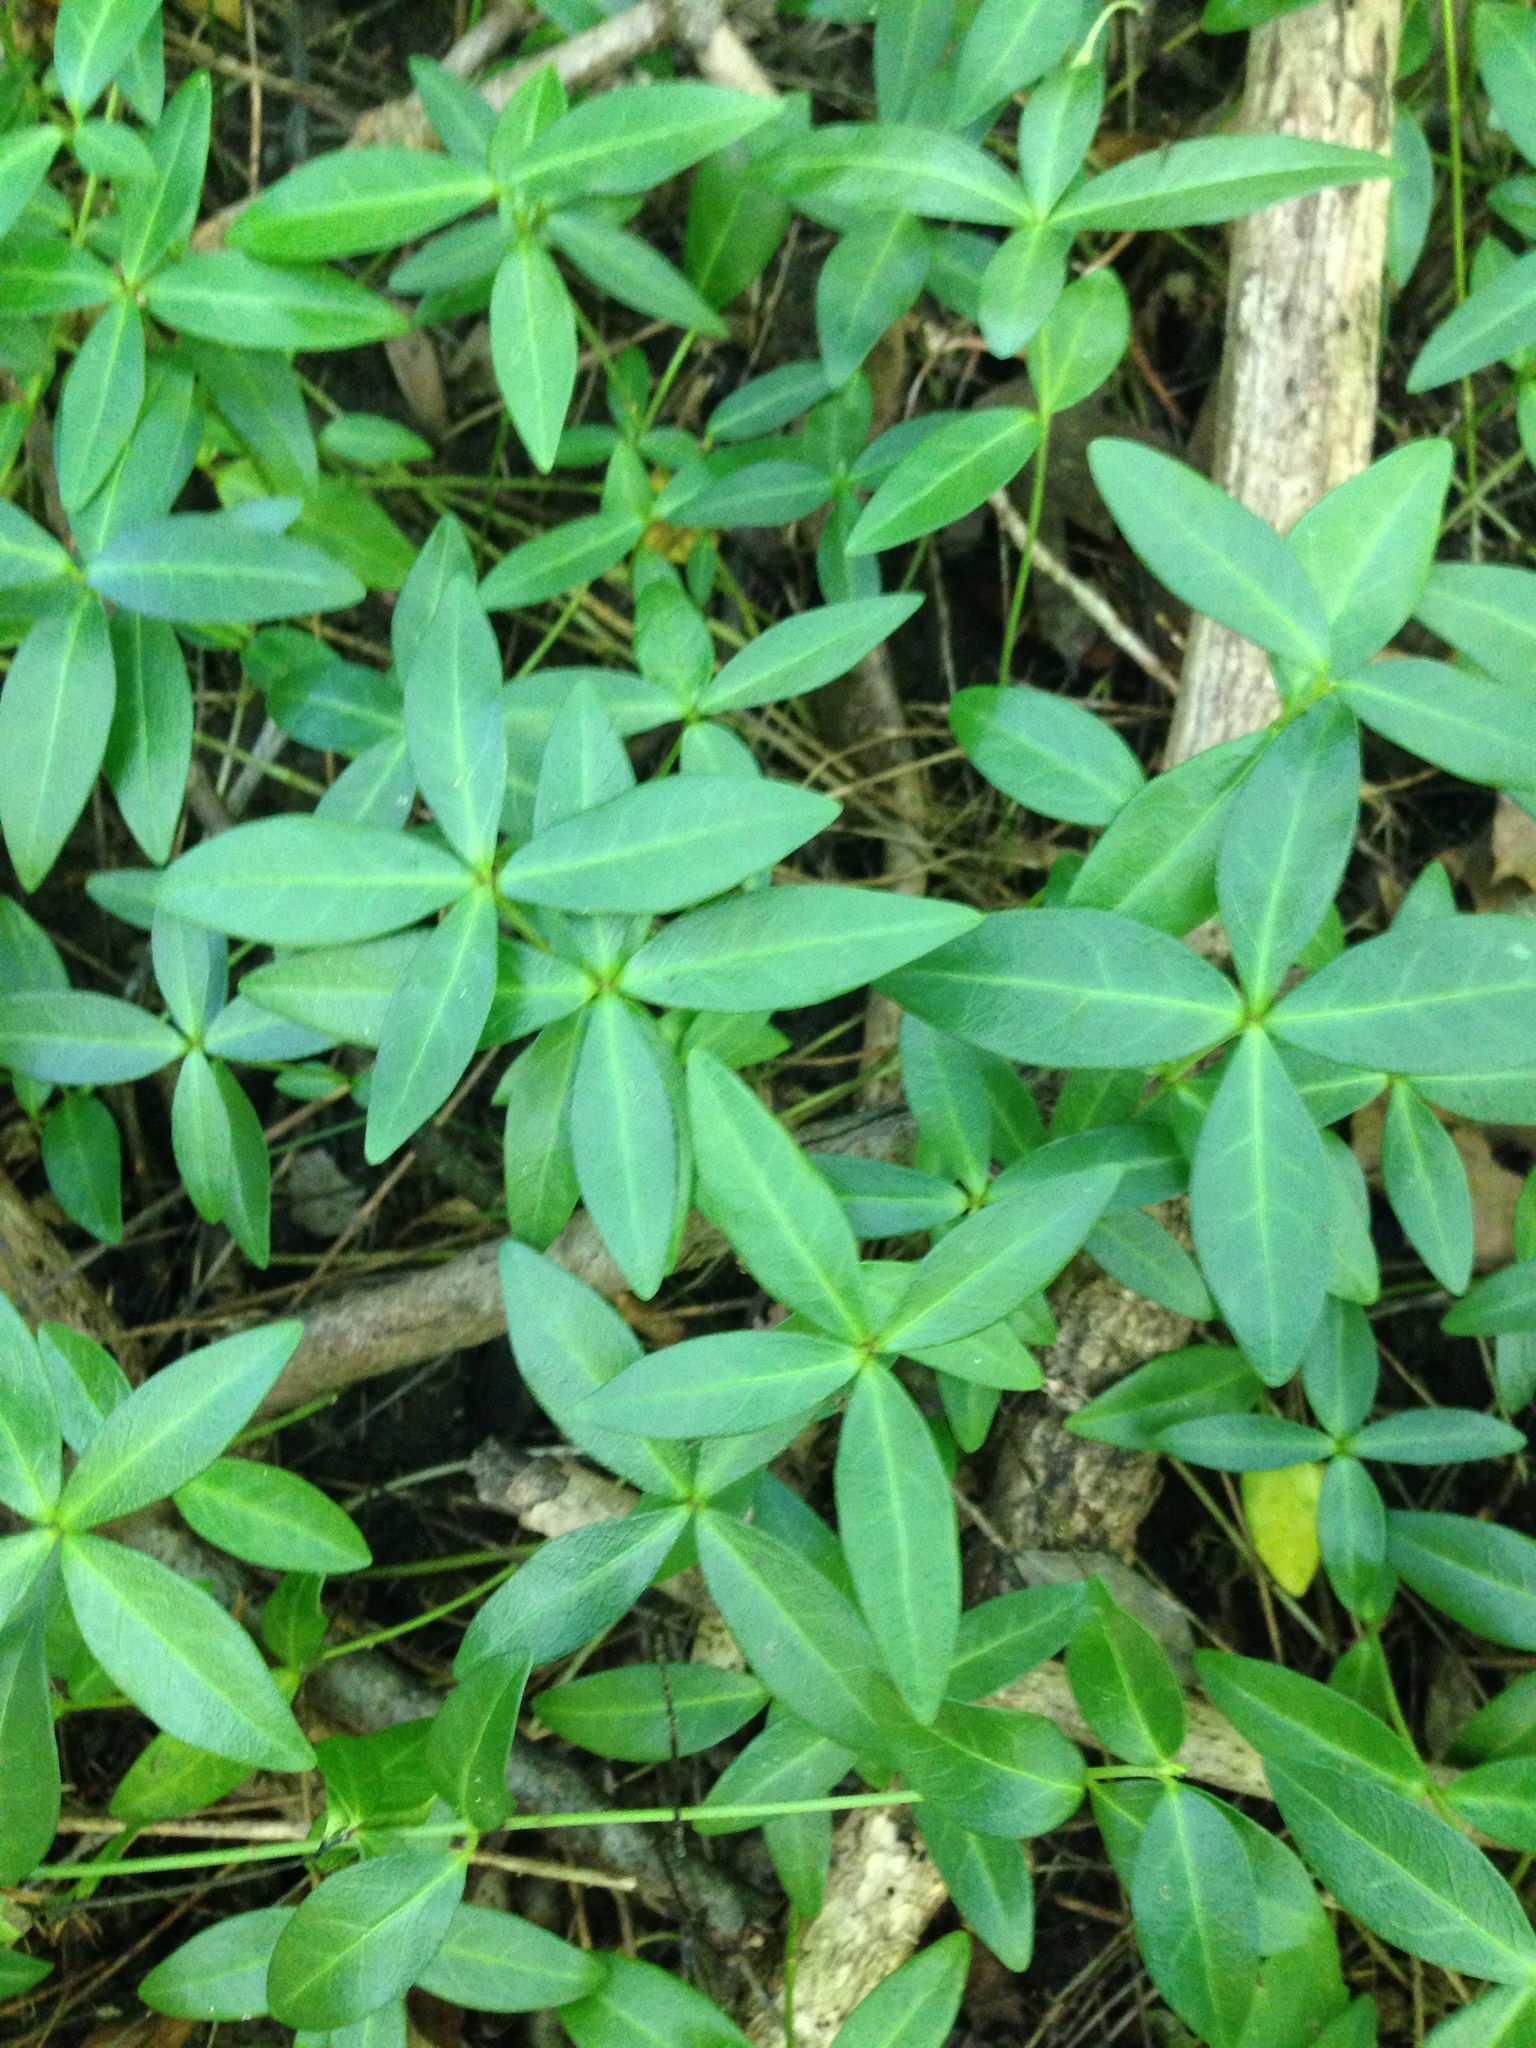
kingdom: Plantae
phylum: Tracheophyta
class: Magnoliopsida
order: Gentianales
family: Apocynaceae
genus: Vinca
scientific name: Vinca minor
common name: Lesser periwinkle
